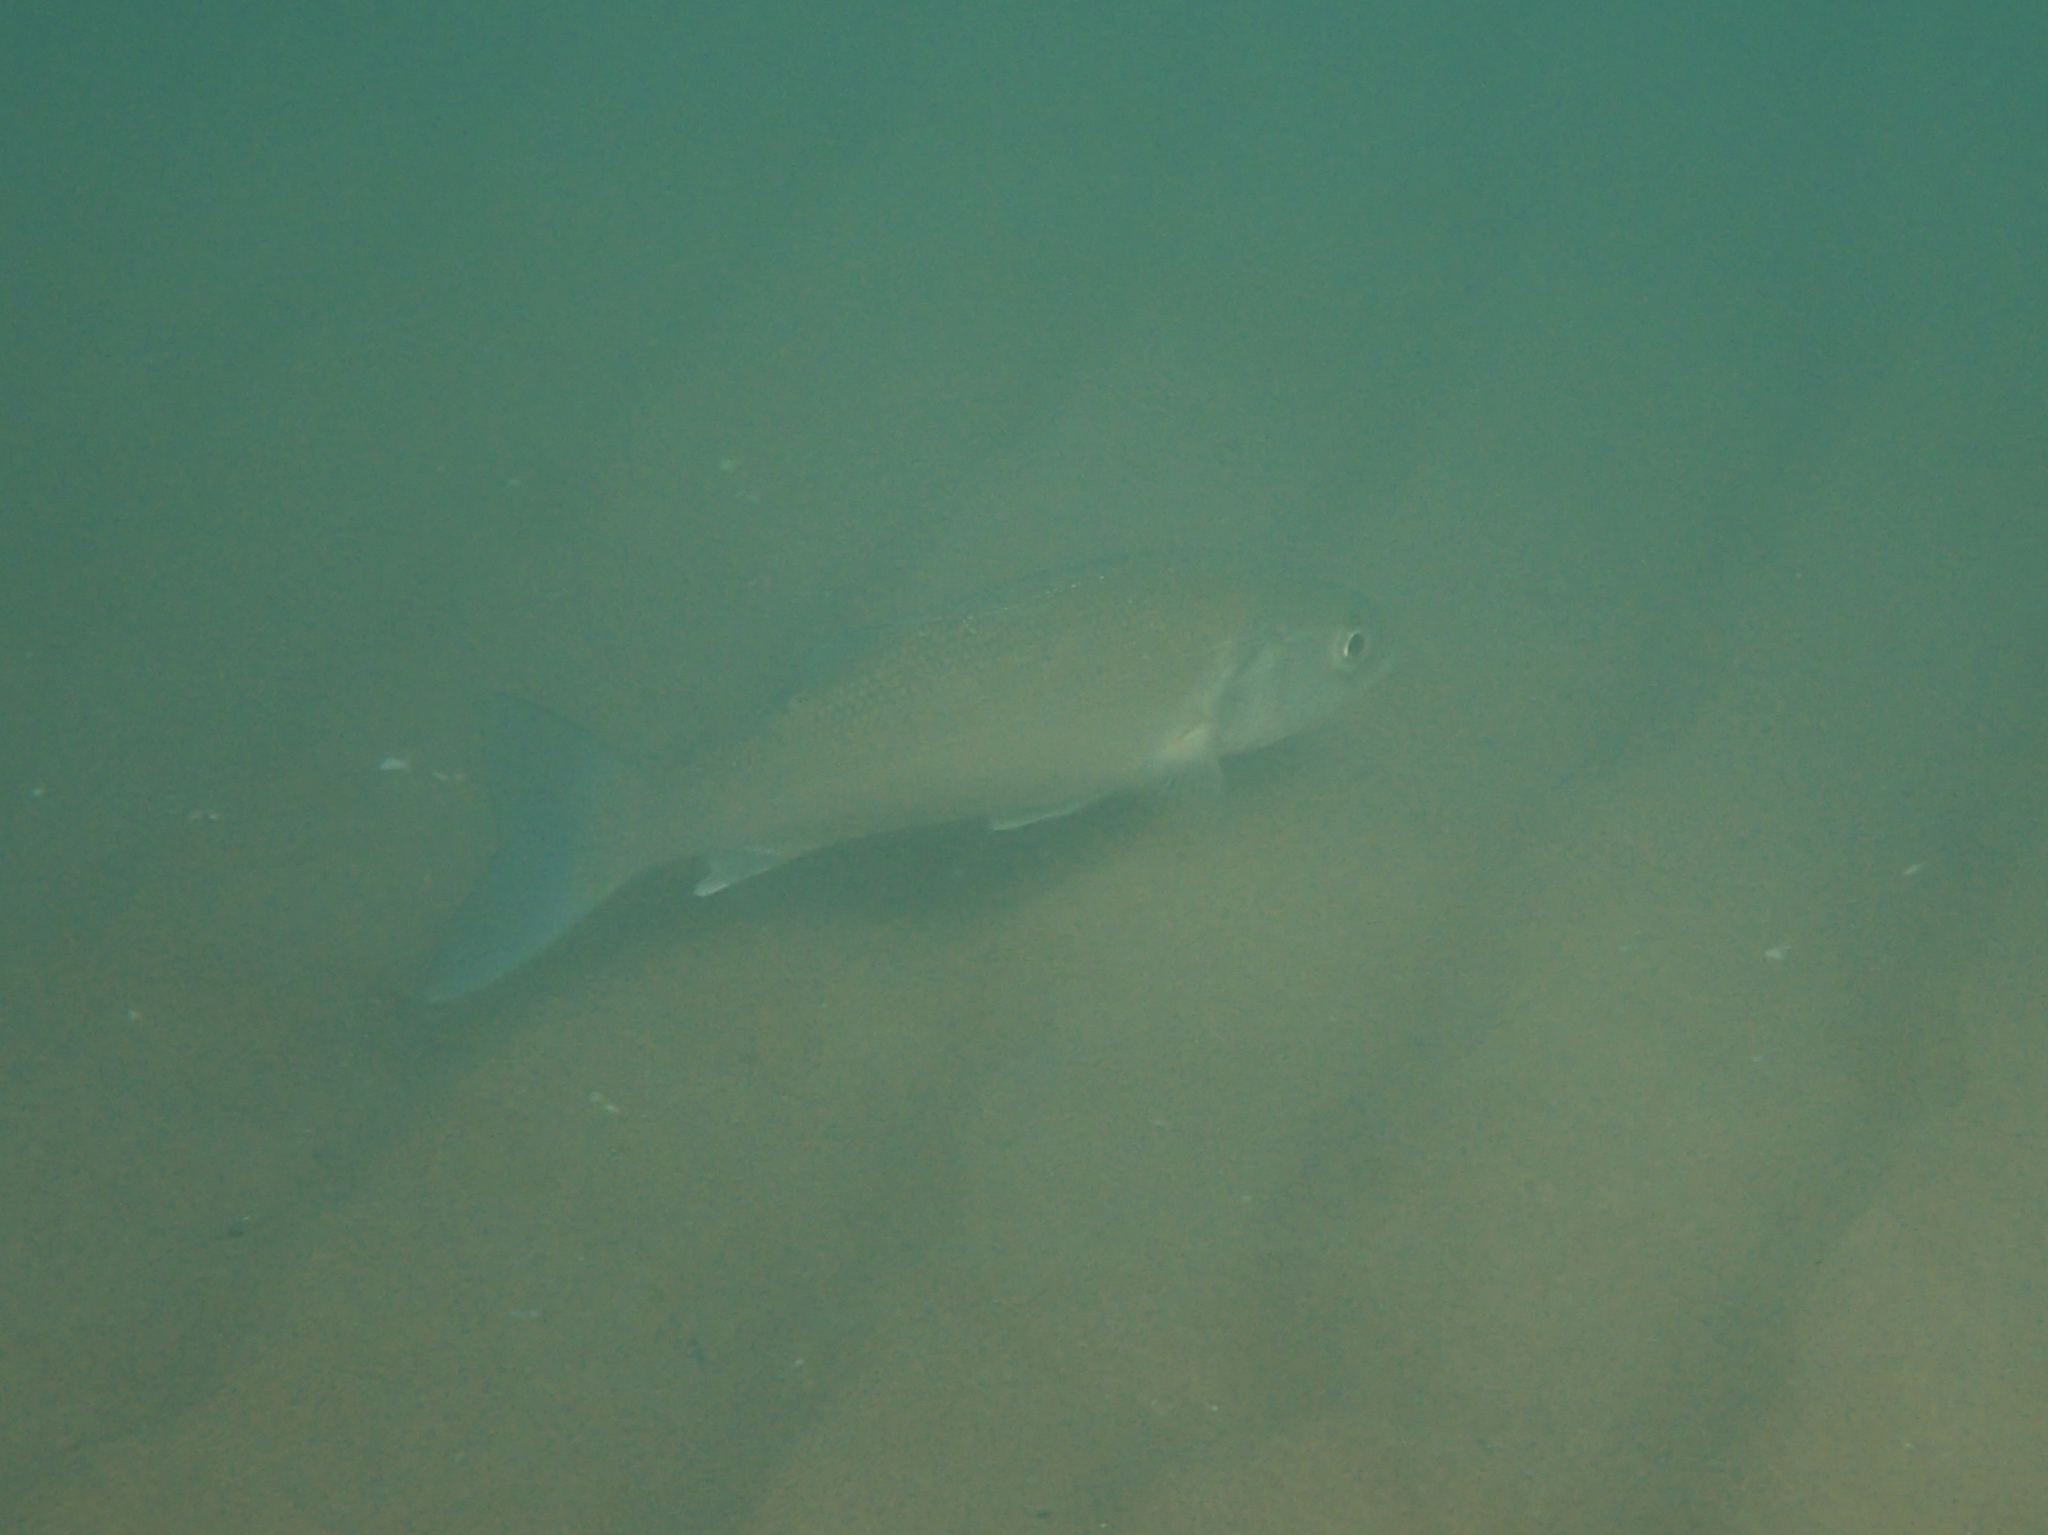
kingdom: Animalia
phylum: Chordata
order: Perciformes
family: Moronidae
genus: Dicentrarchus
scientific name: Dicentrarchus labrax
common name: European seabass
